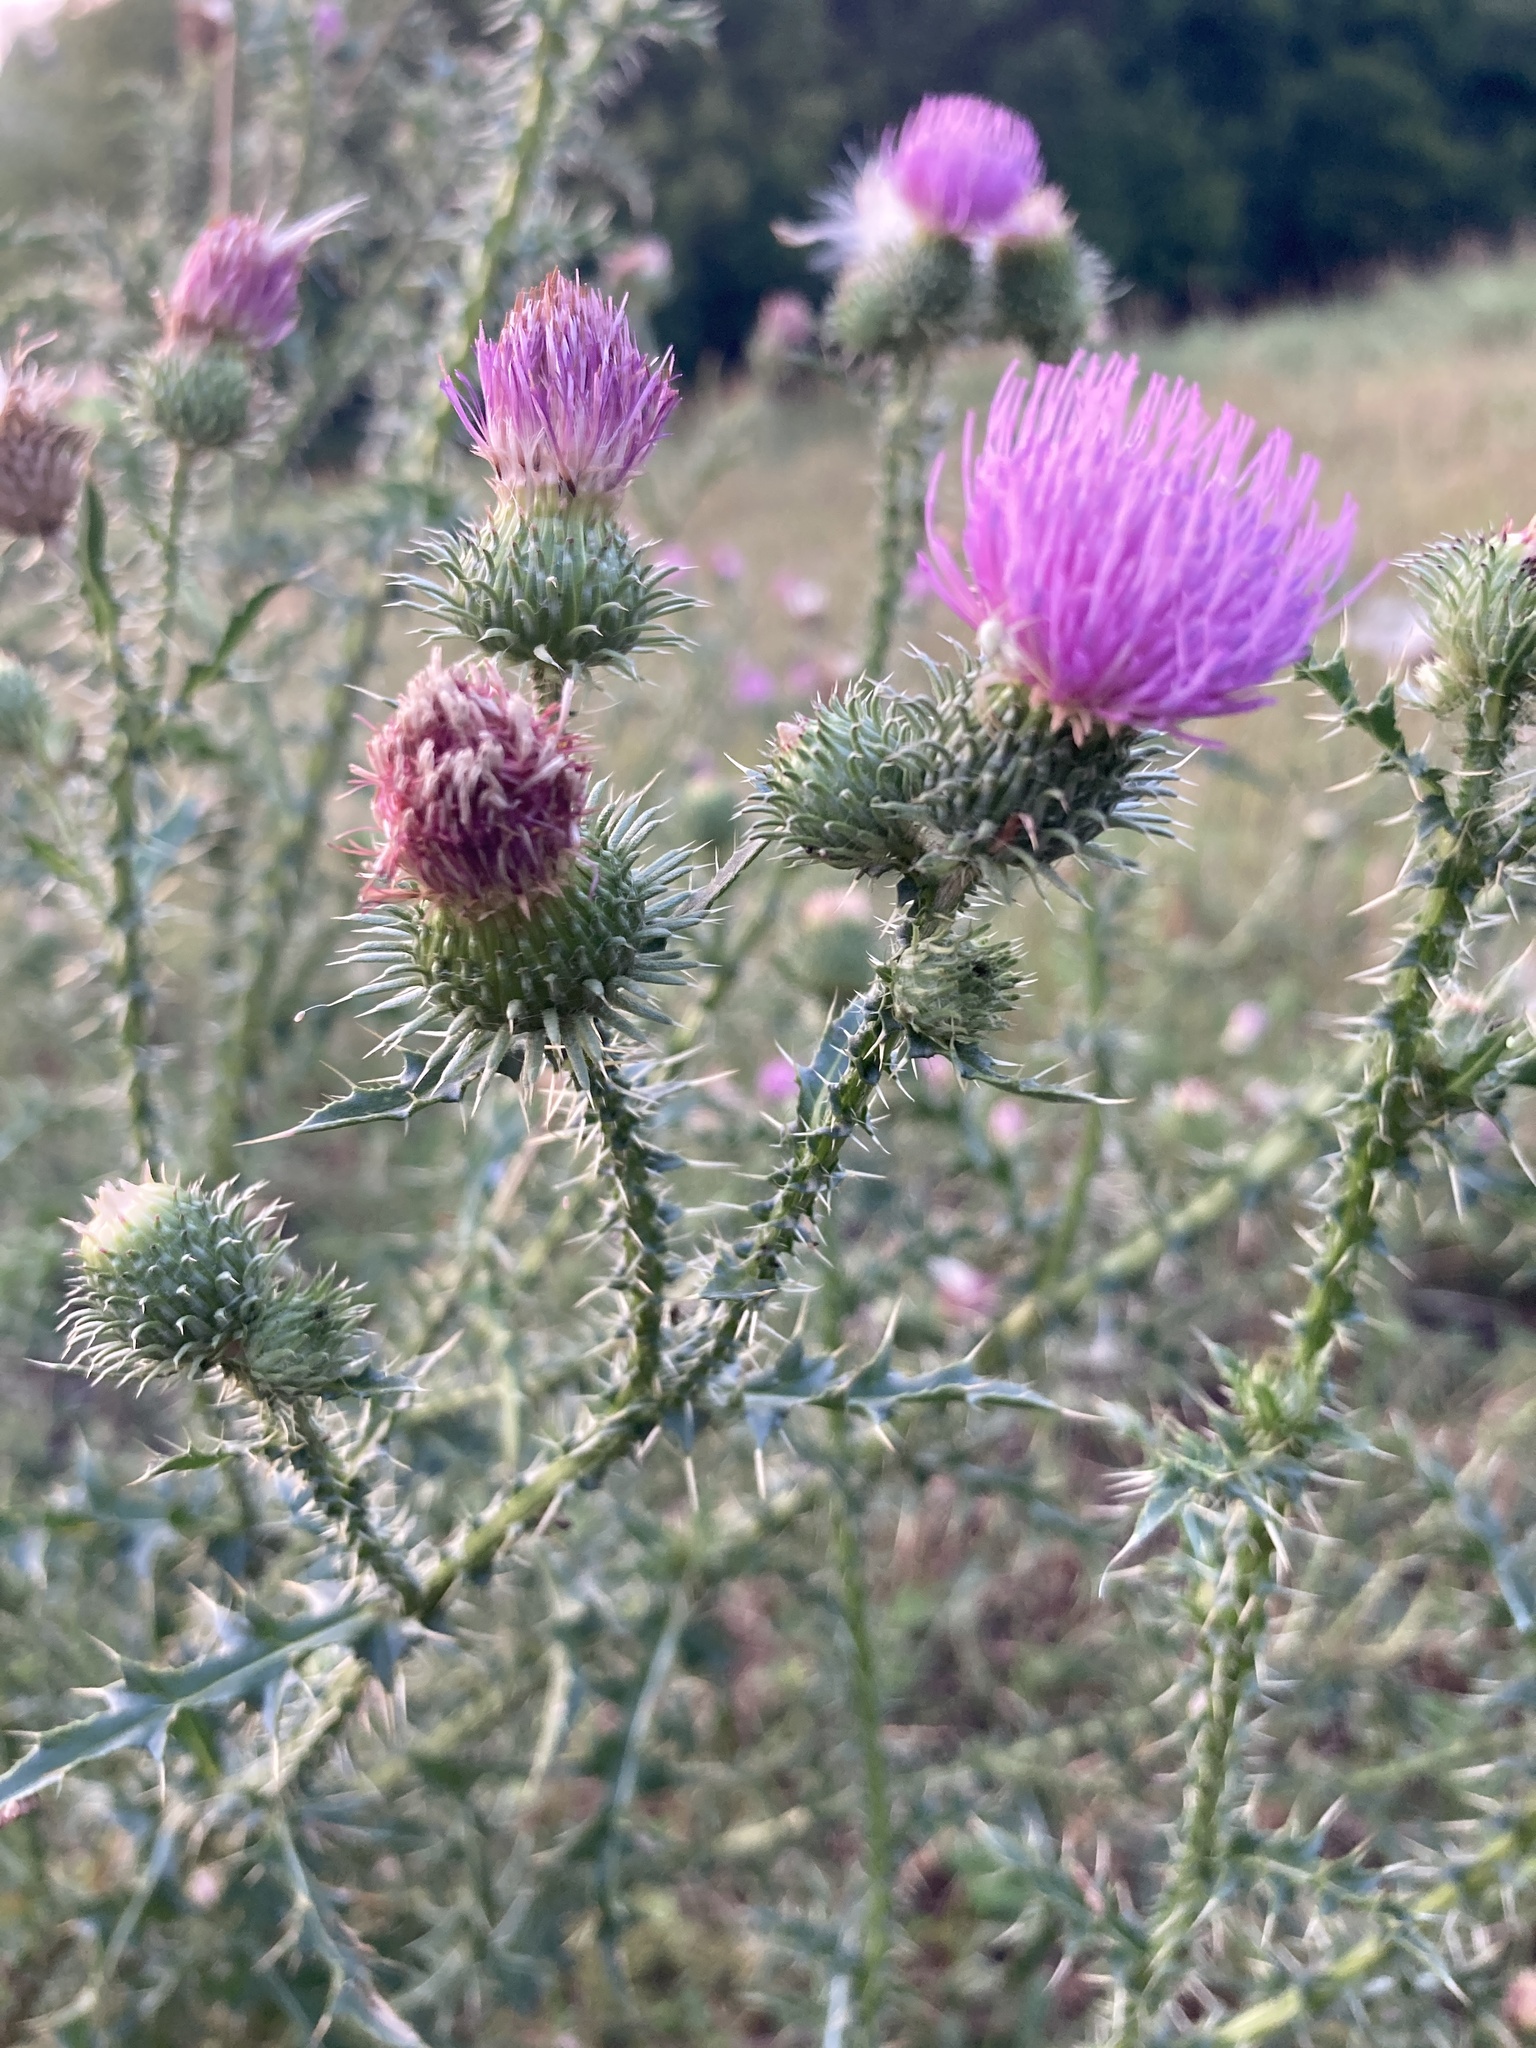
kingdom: Plantae
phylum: Tracheophyta
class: Magnoliopsida
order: Asterales
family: Asteraceae
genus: Carduus
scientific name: Carduus acanthoides
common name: Plumeless thistle
